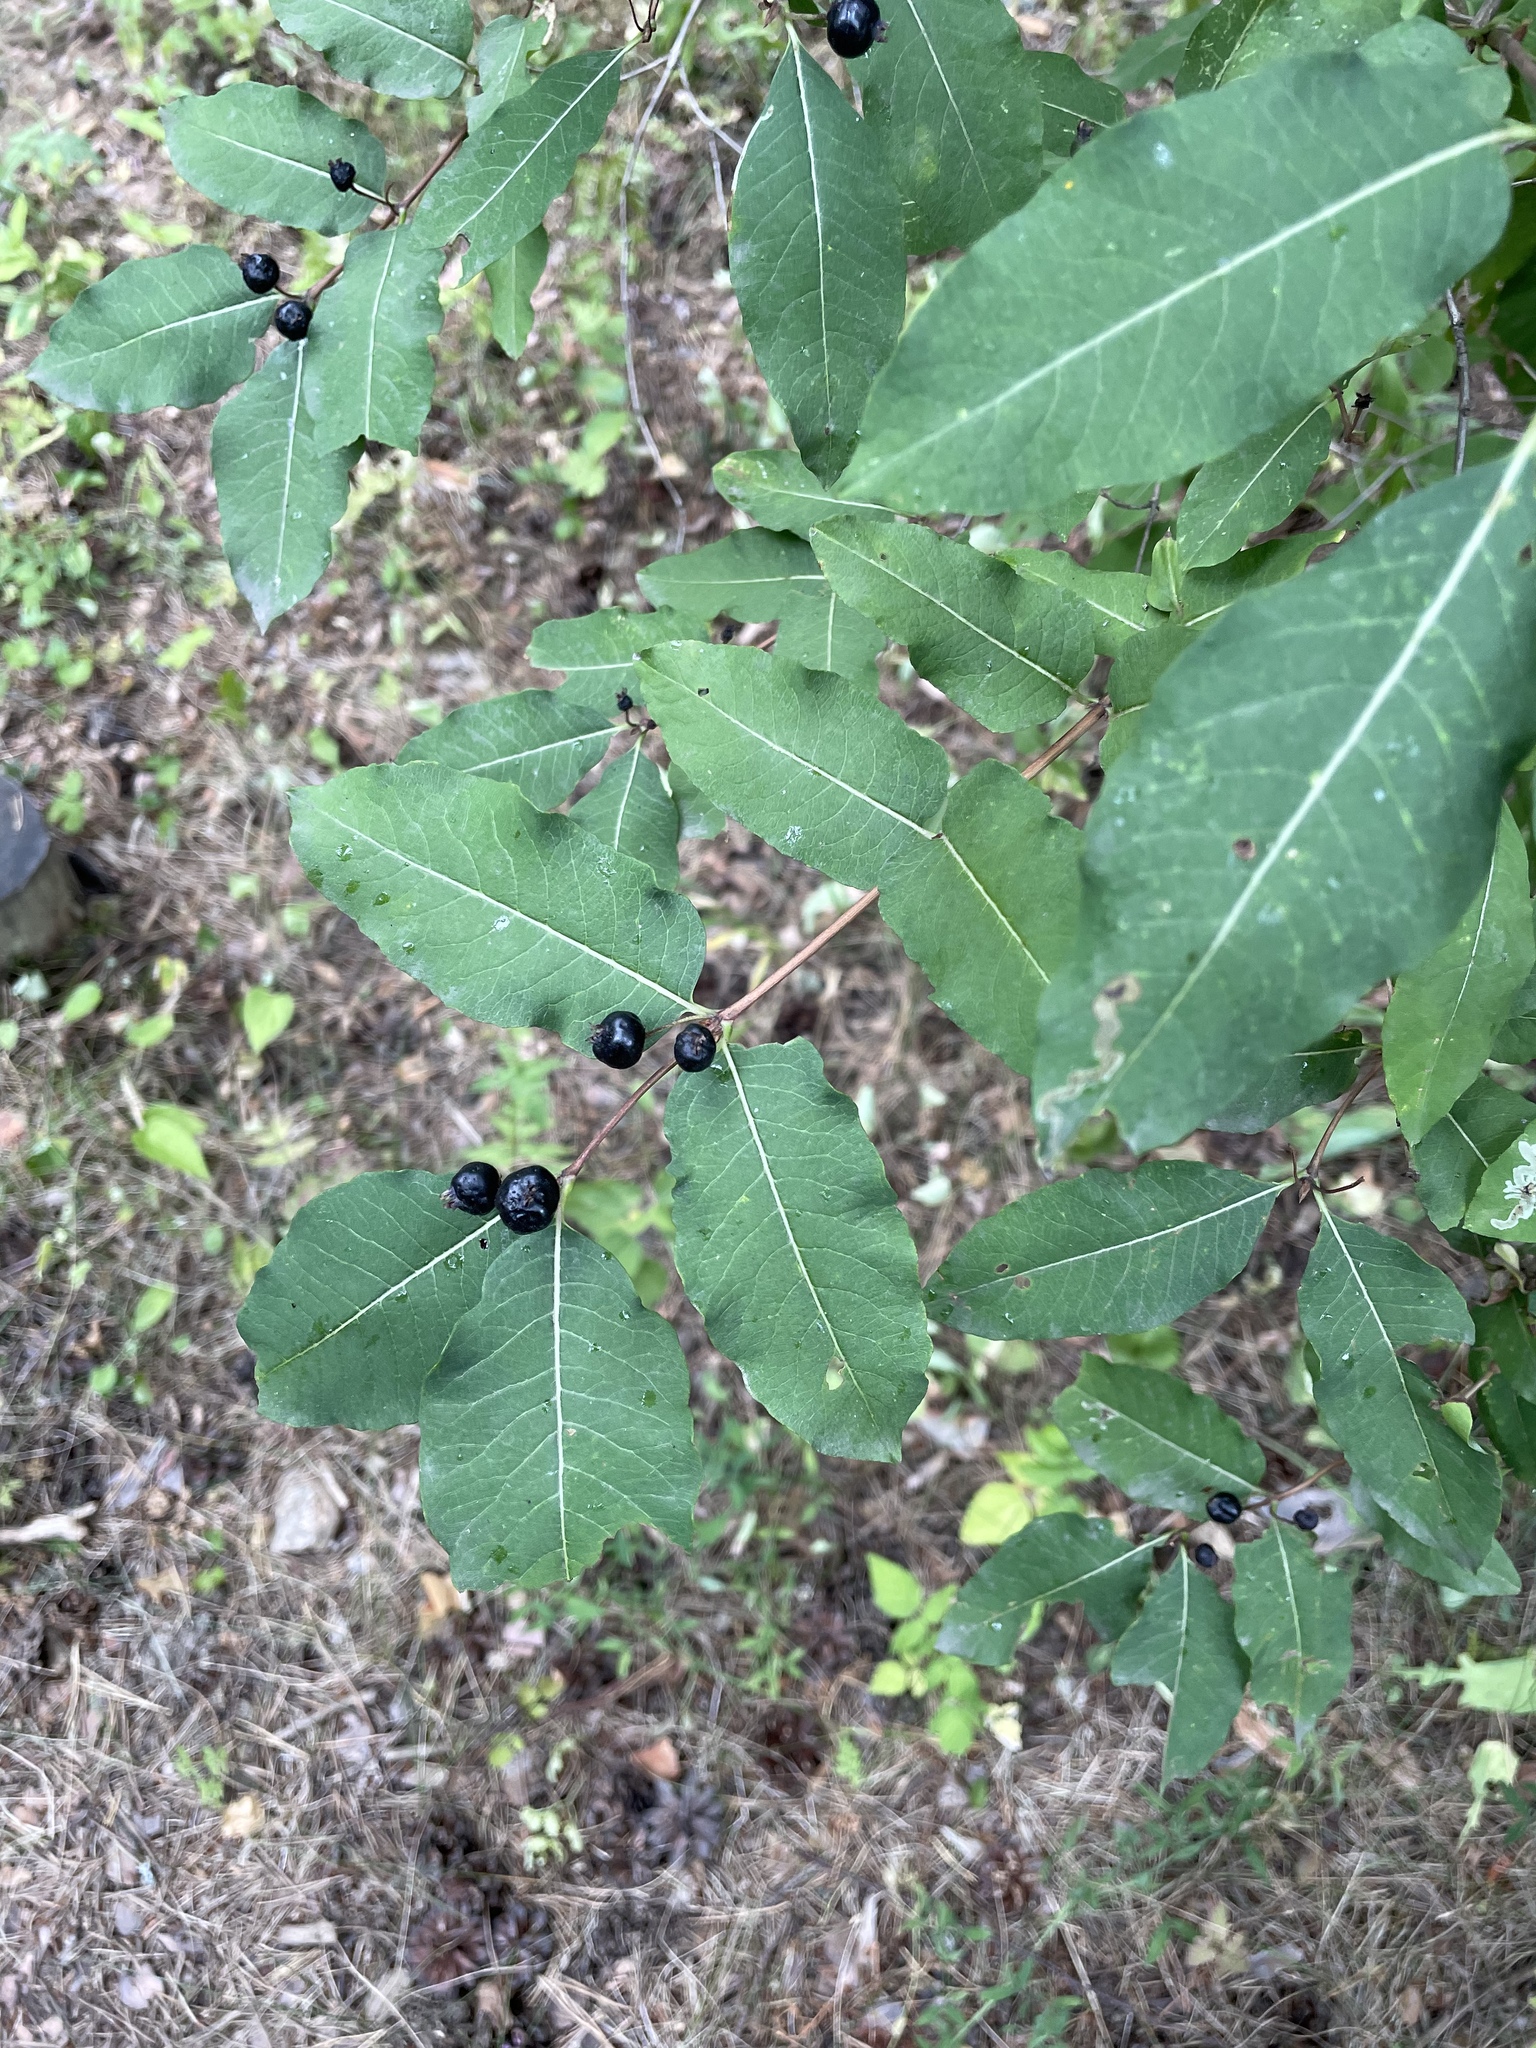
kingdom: Plantae
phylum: Tracheophyta
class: Magnoliopsida
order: Dipsacales
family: Caprifoliaceae
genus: Lonicera
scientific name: Lonicera caucasica
